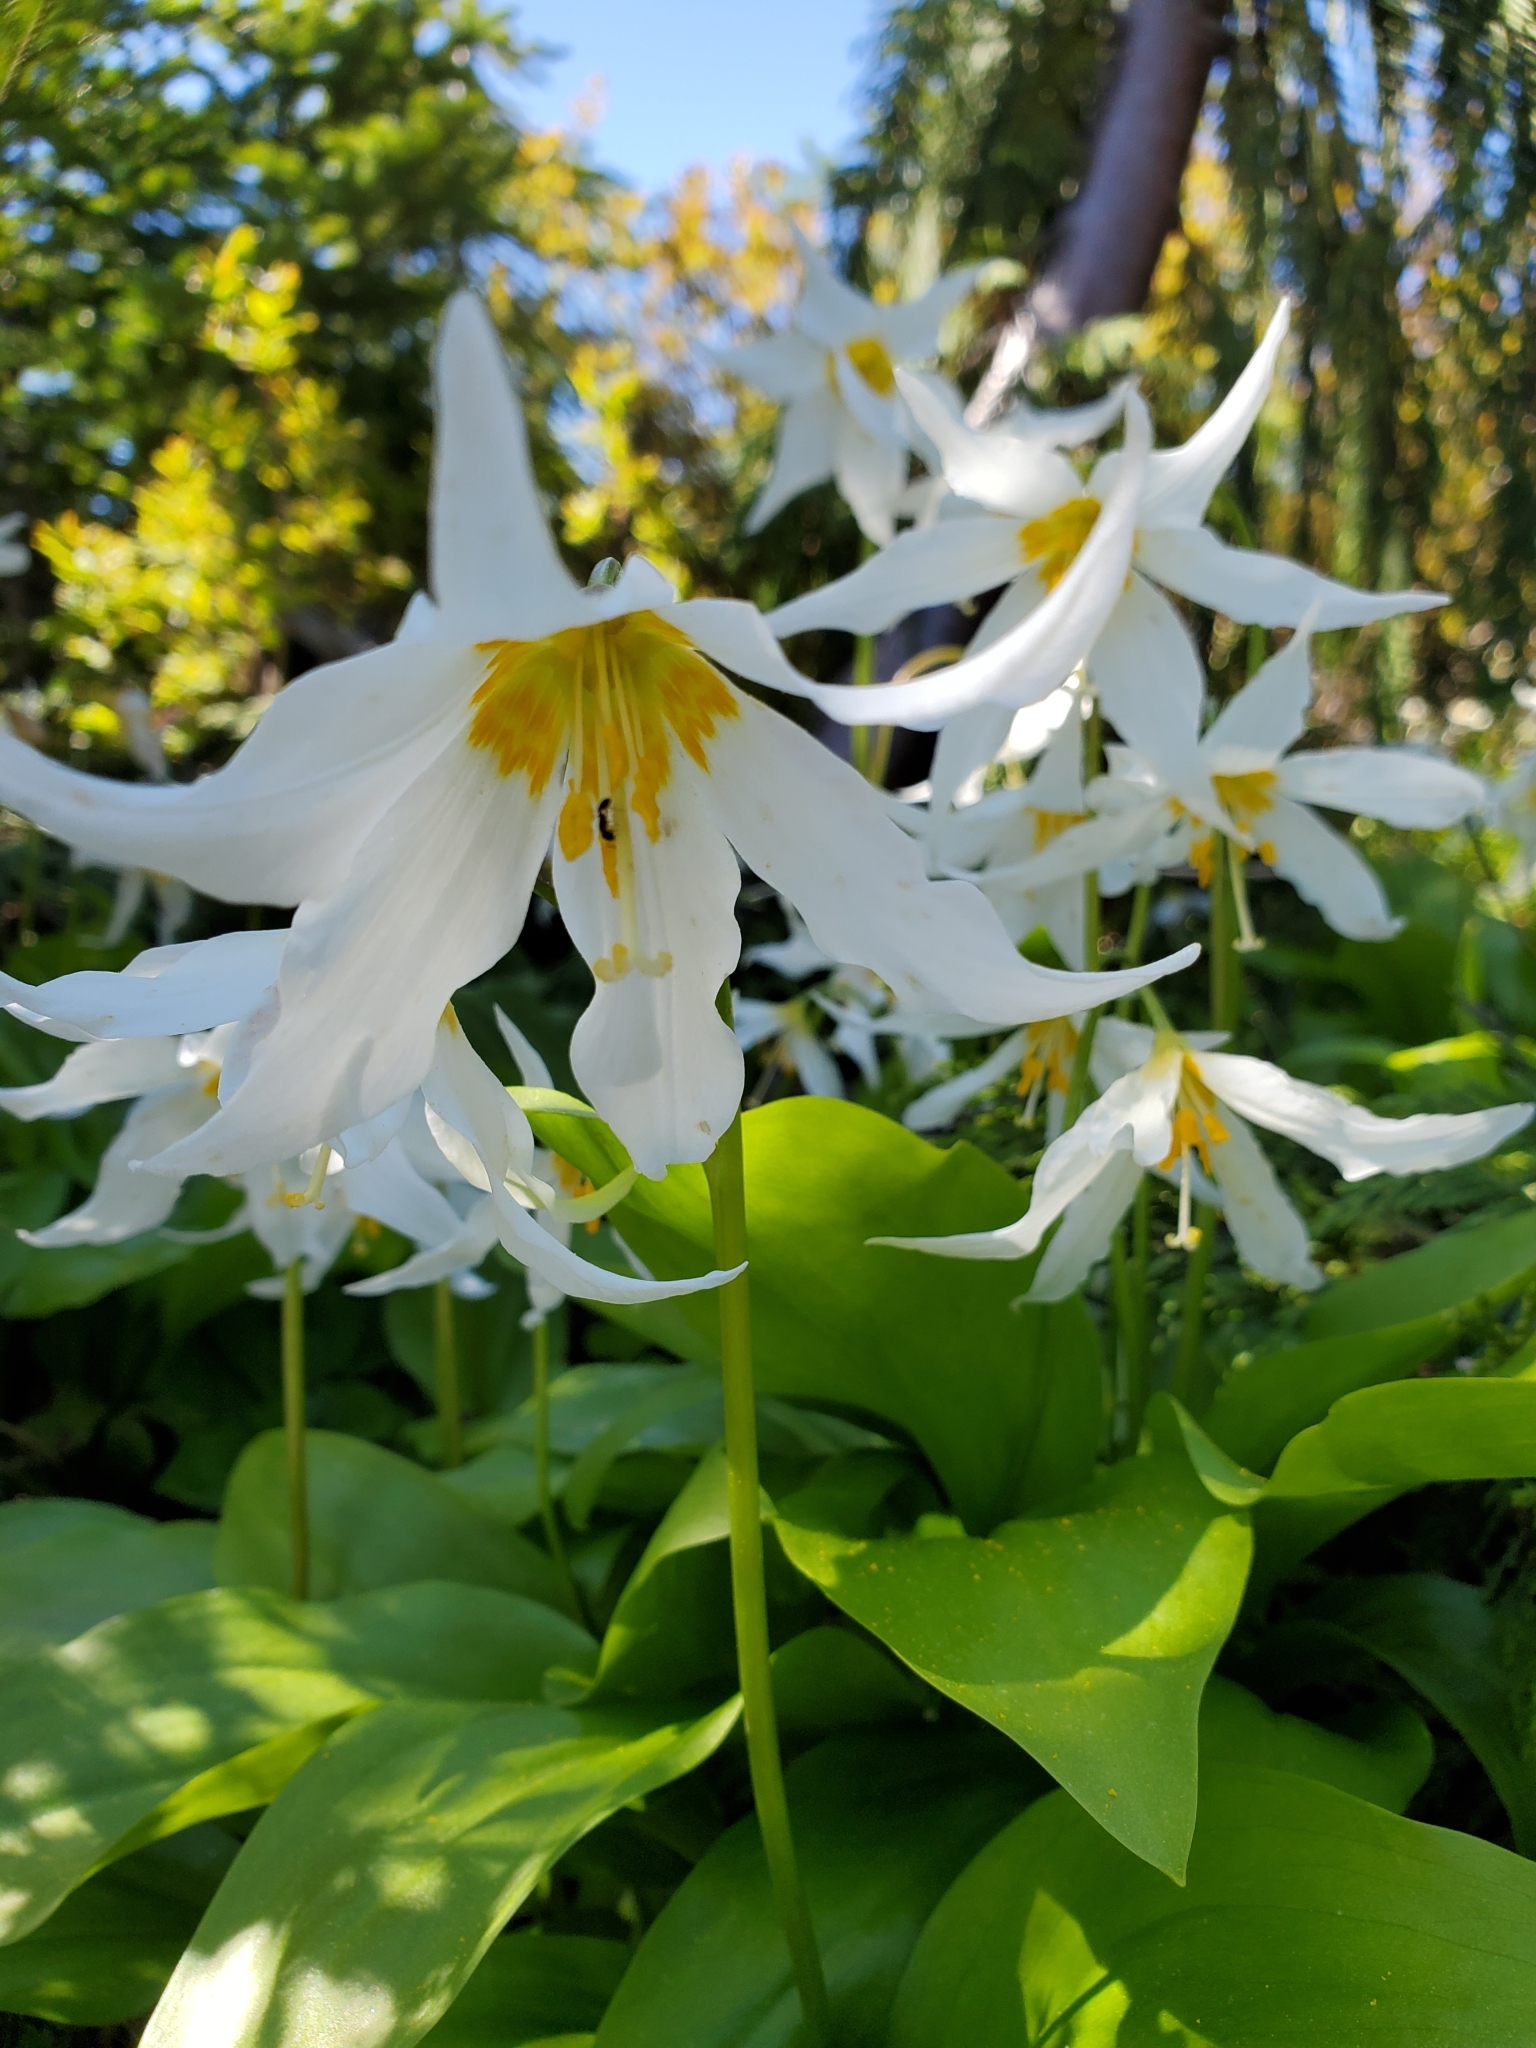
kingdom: Plantae
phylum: Tracheophyta
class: Liliopsida
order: Liliales
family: Liliaceae
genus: Erythronium
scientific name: Erythronium montanum
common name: Avalanche lily
